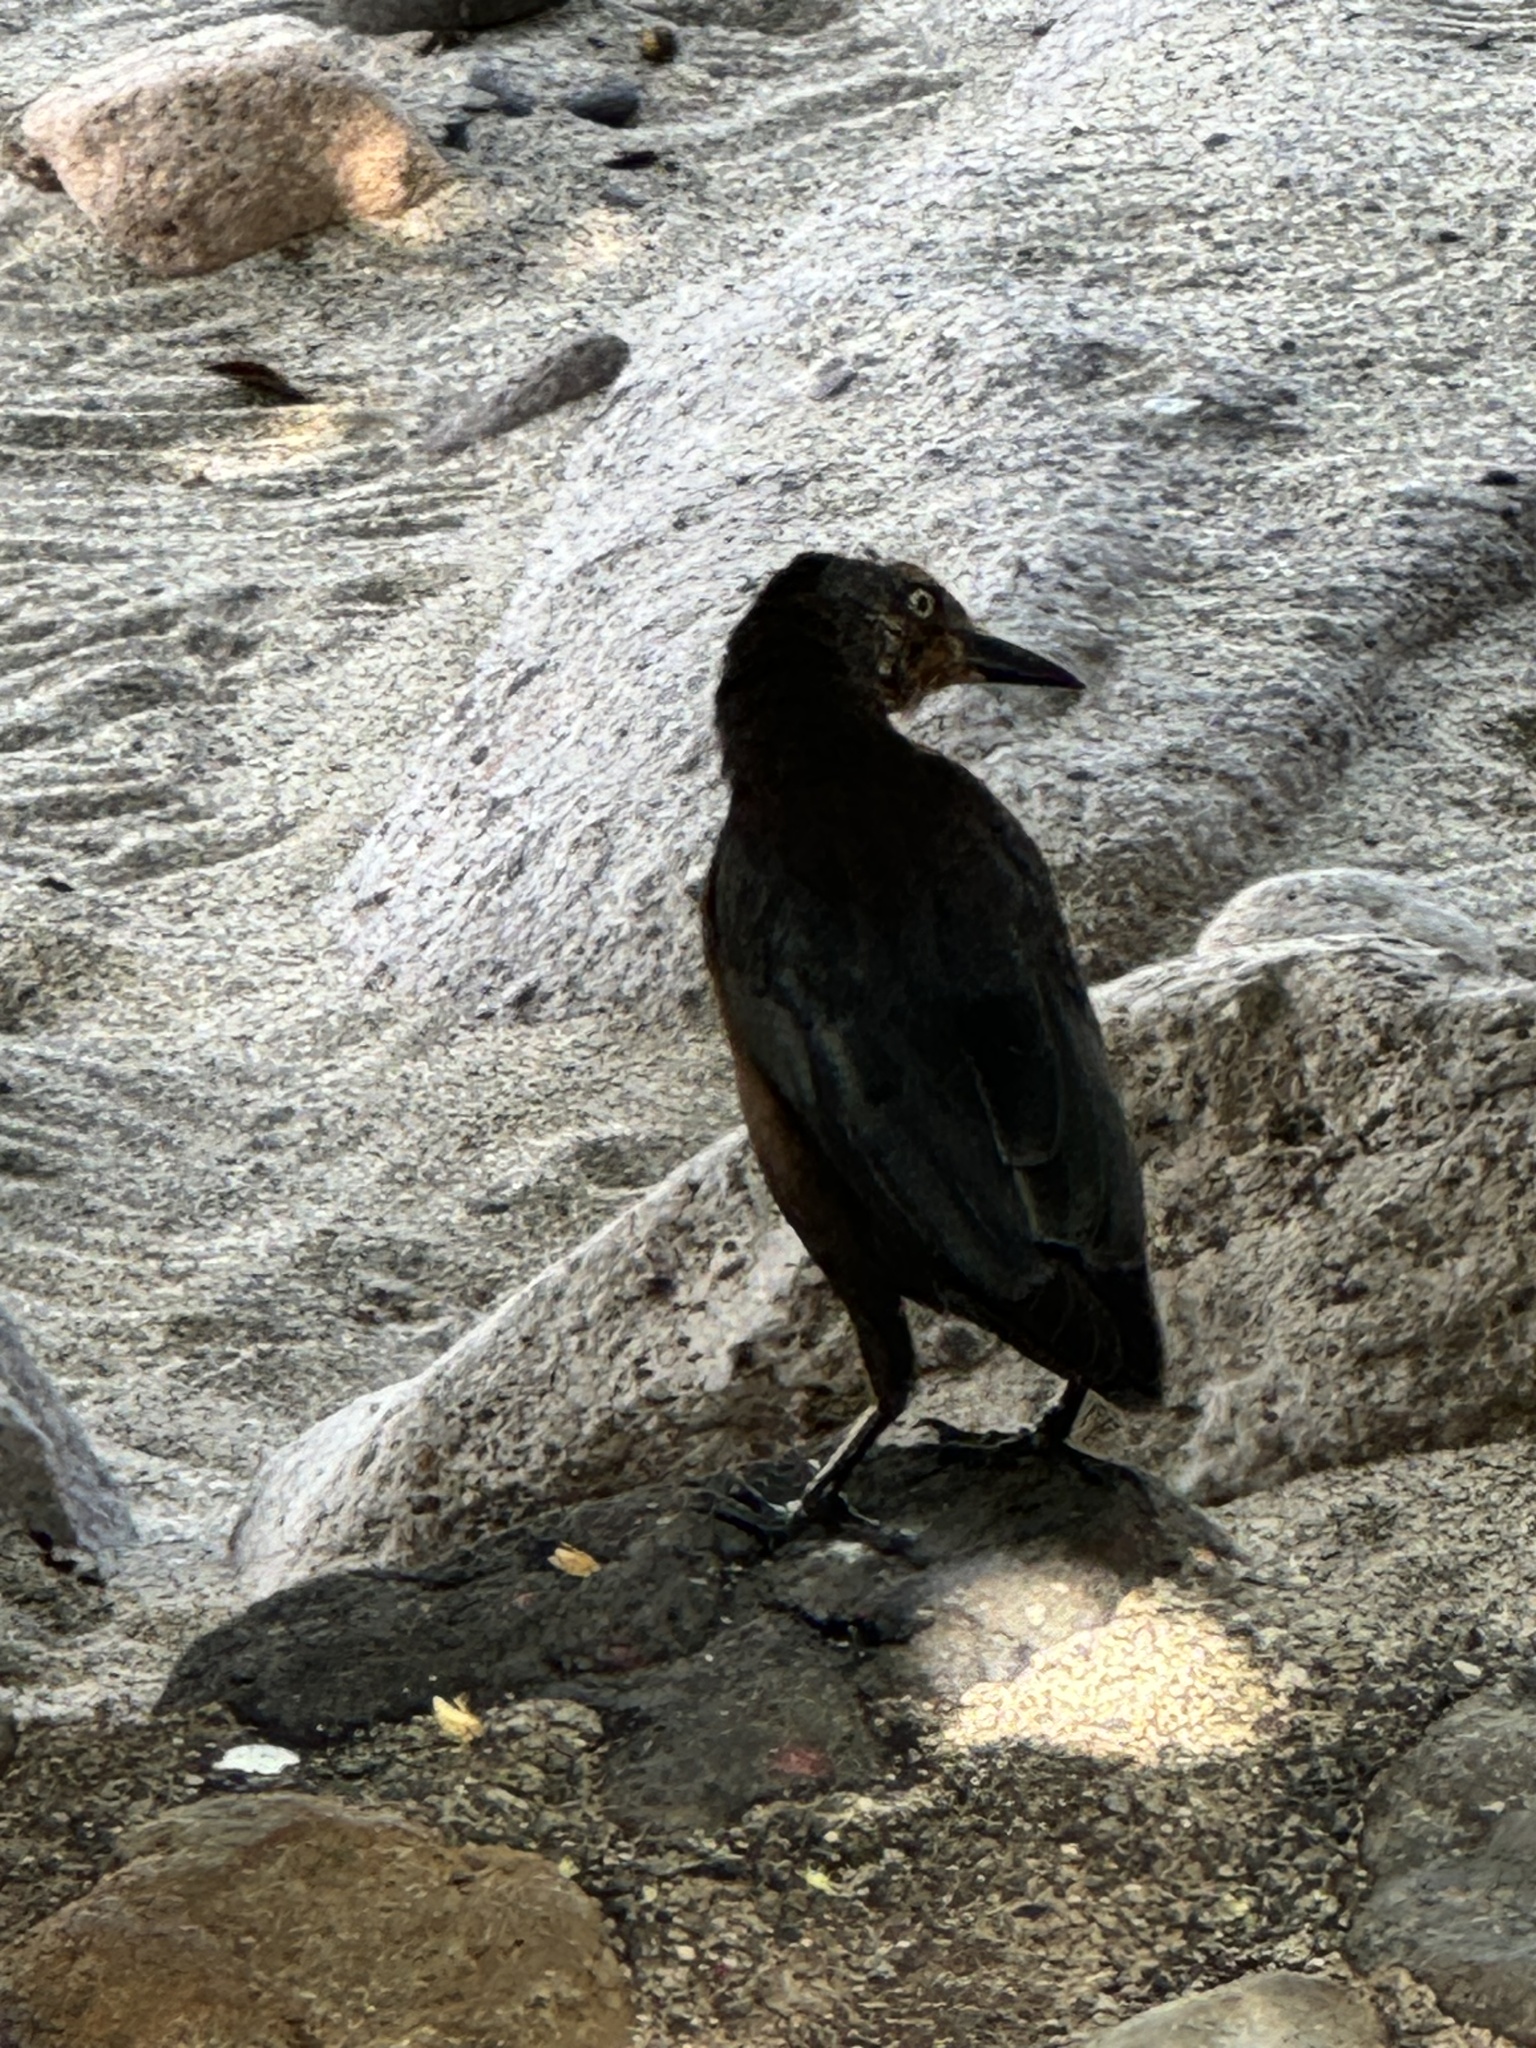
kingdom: Animalia
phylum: Chordata
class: Aves
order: Passeriformes
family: Icteridae
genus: Quiscalus
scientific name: Quiscalus mexicanus
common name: Great-tailed grackle
